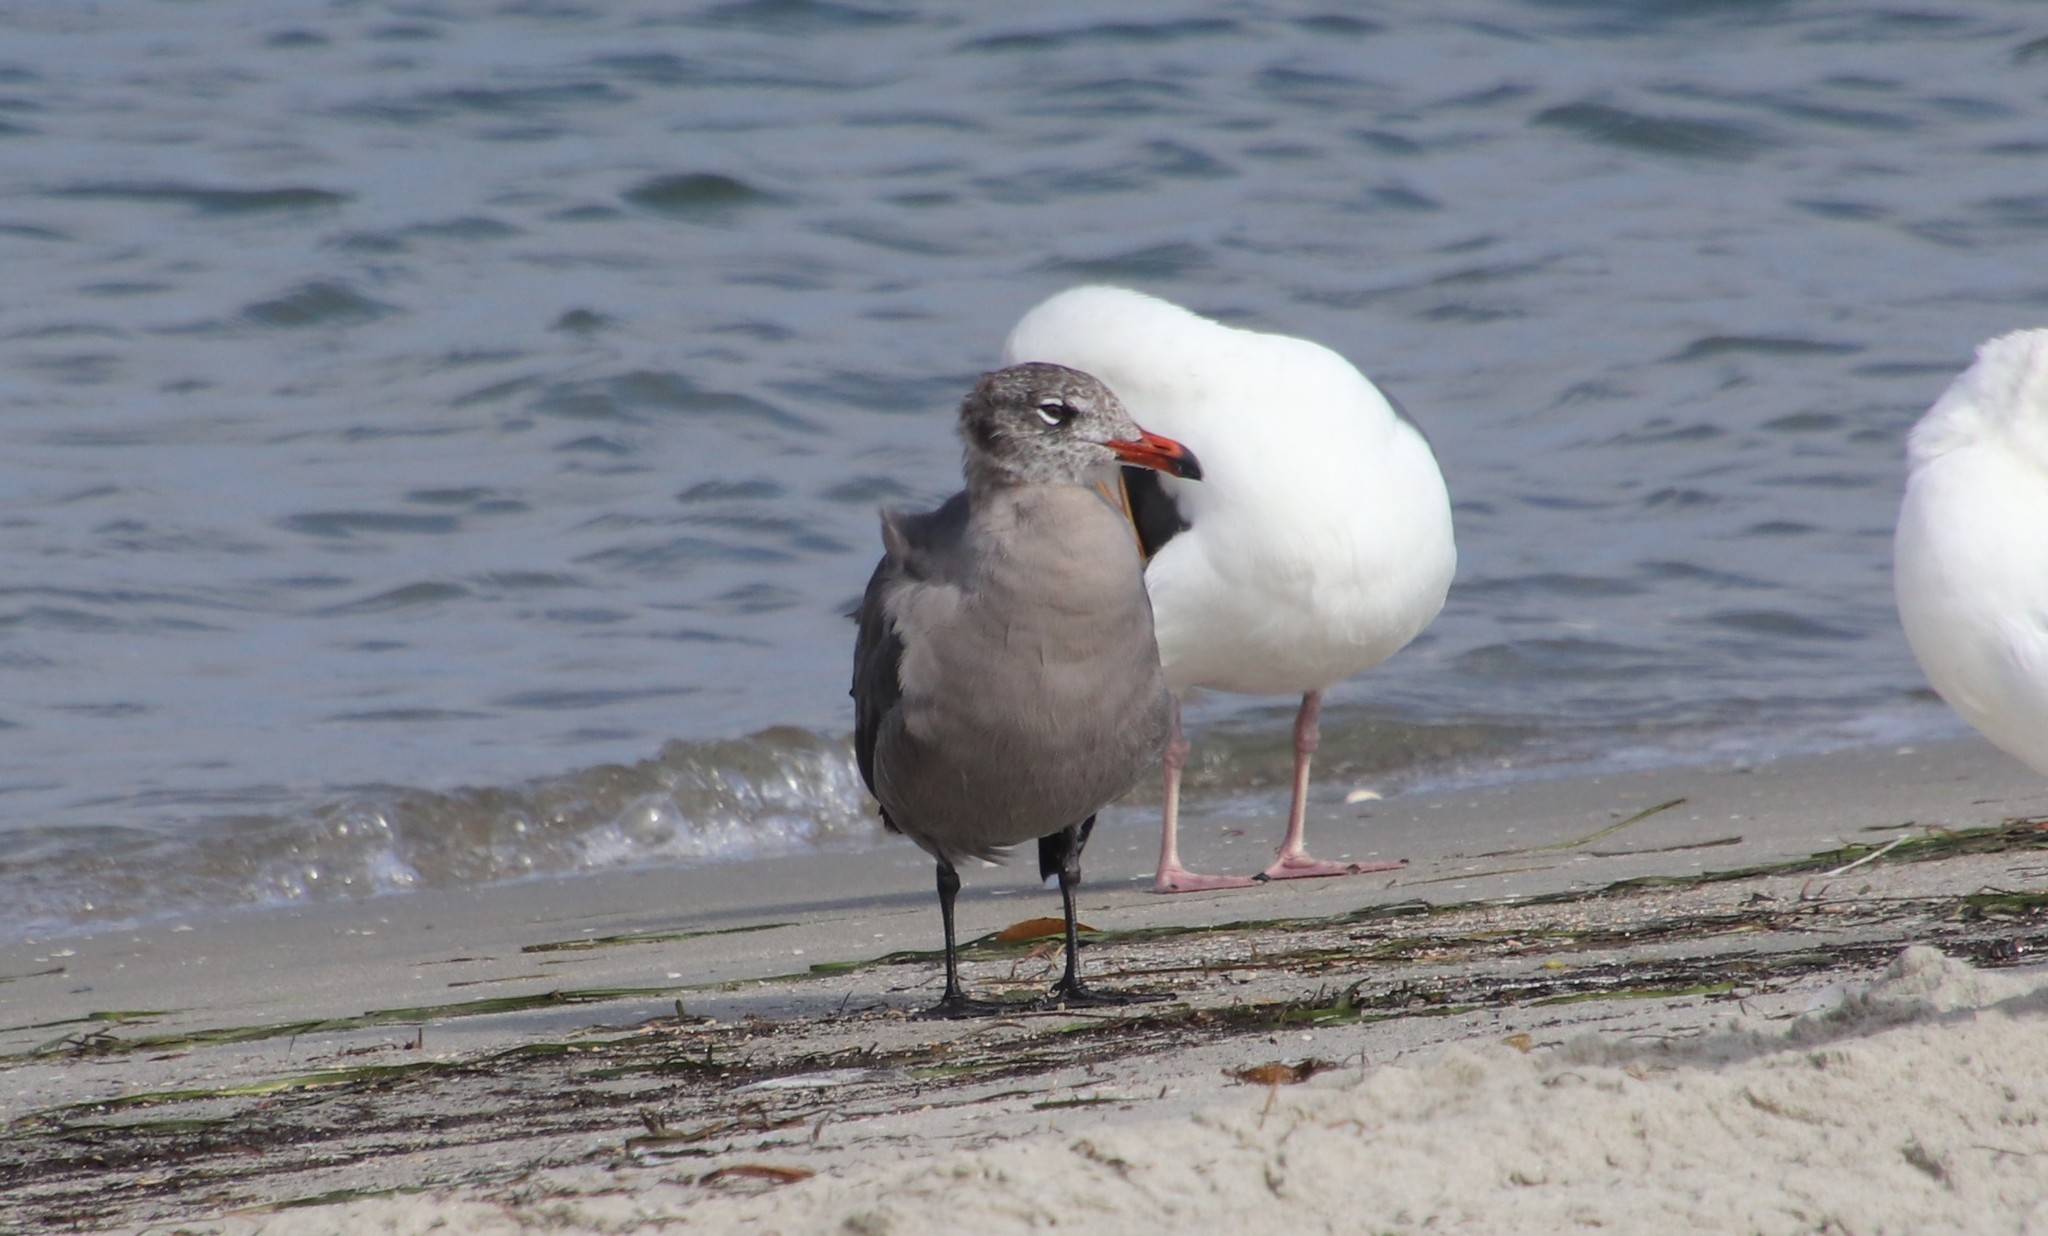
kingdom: Animalia
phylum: Chordata
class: Aves
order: Charadriiformes
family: Laridae
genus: Larus
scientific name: Larus heermanni
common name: Heermann's gull
